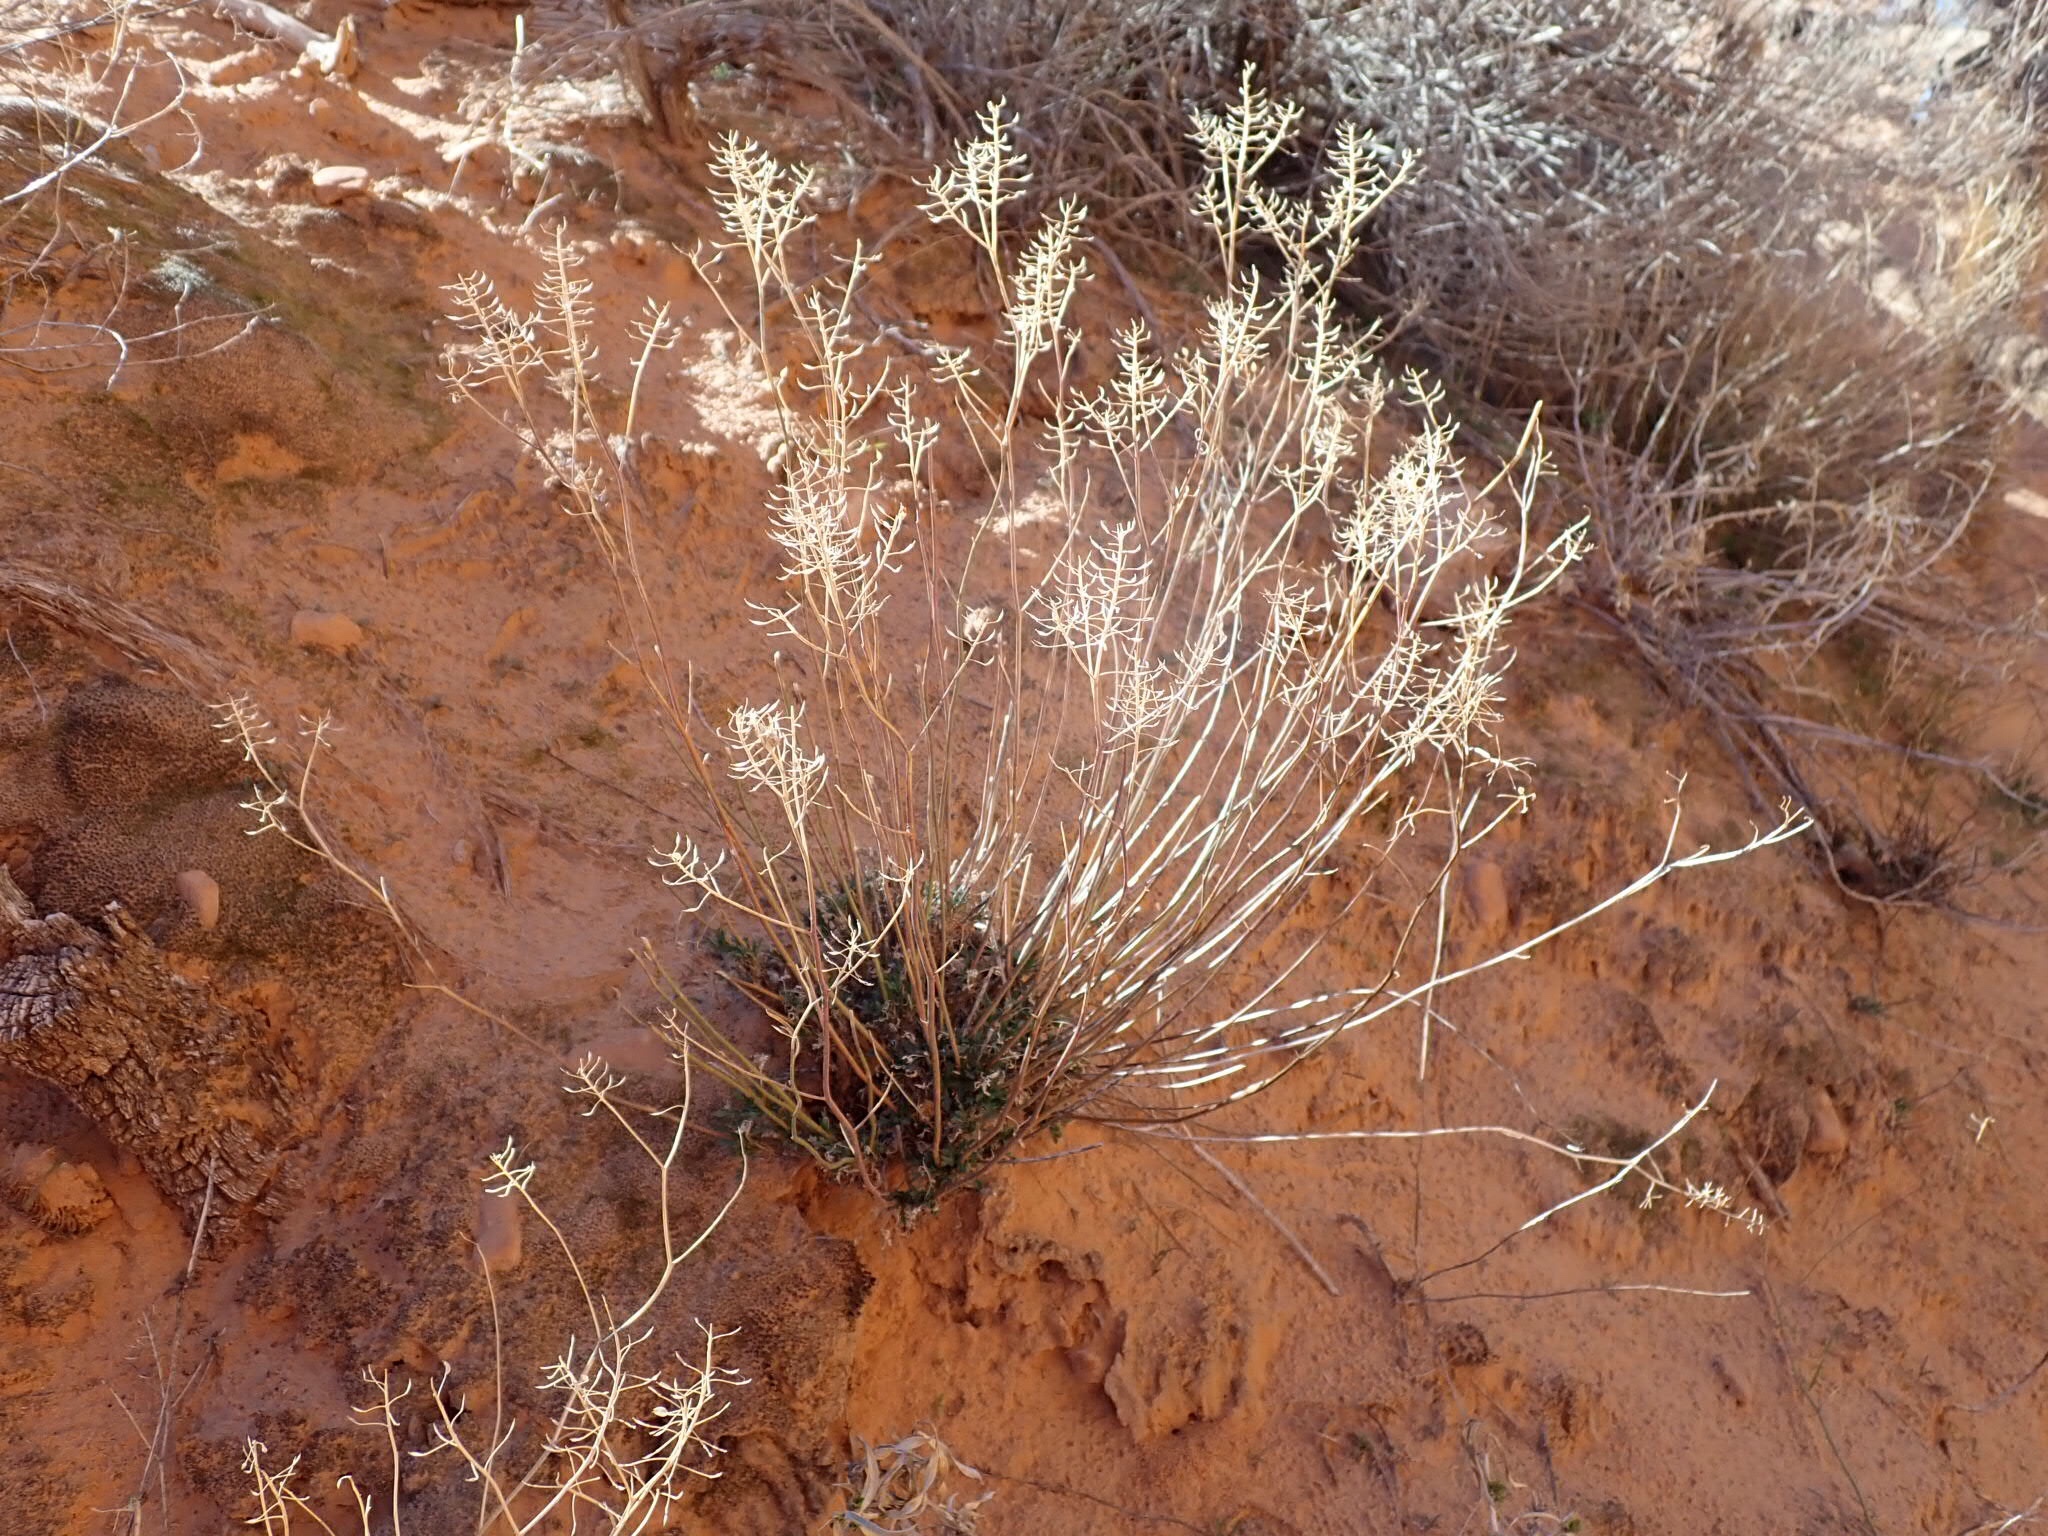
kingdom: Plantae
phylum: Tracheophyta
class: Magnoliopsida
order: Brassicales
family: Brassicaceae
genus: Lepidium
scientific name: Lepidium montanum
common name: Mountain pepperplant
